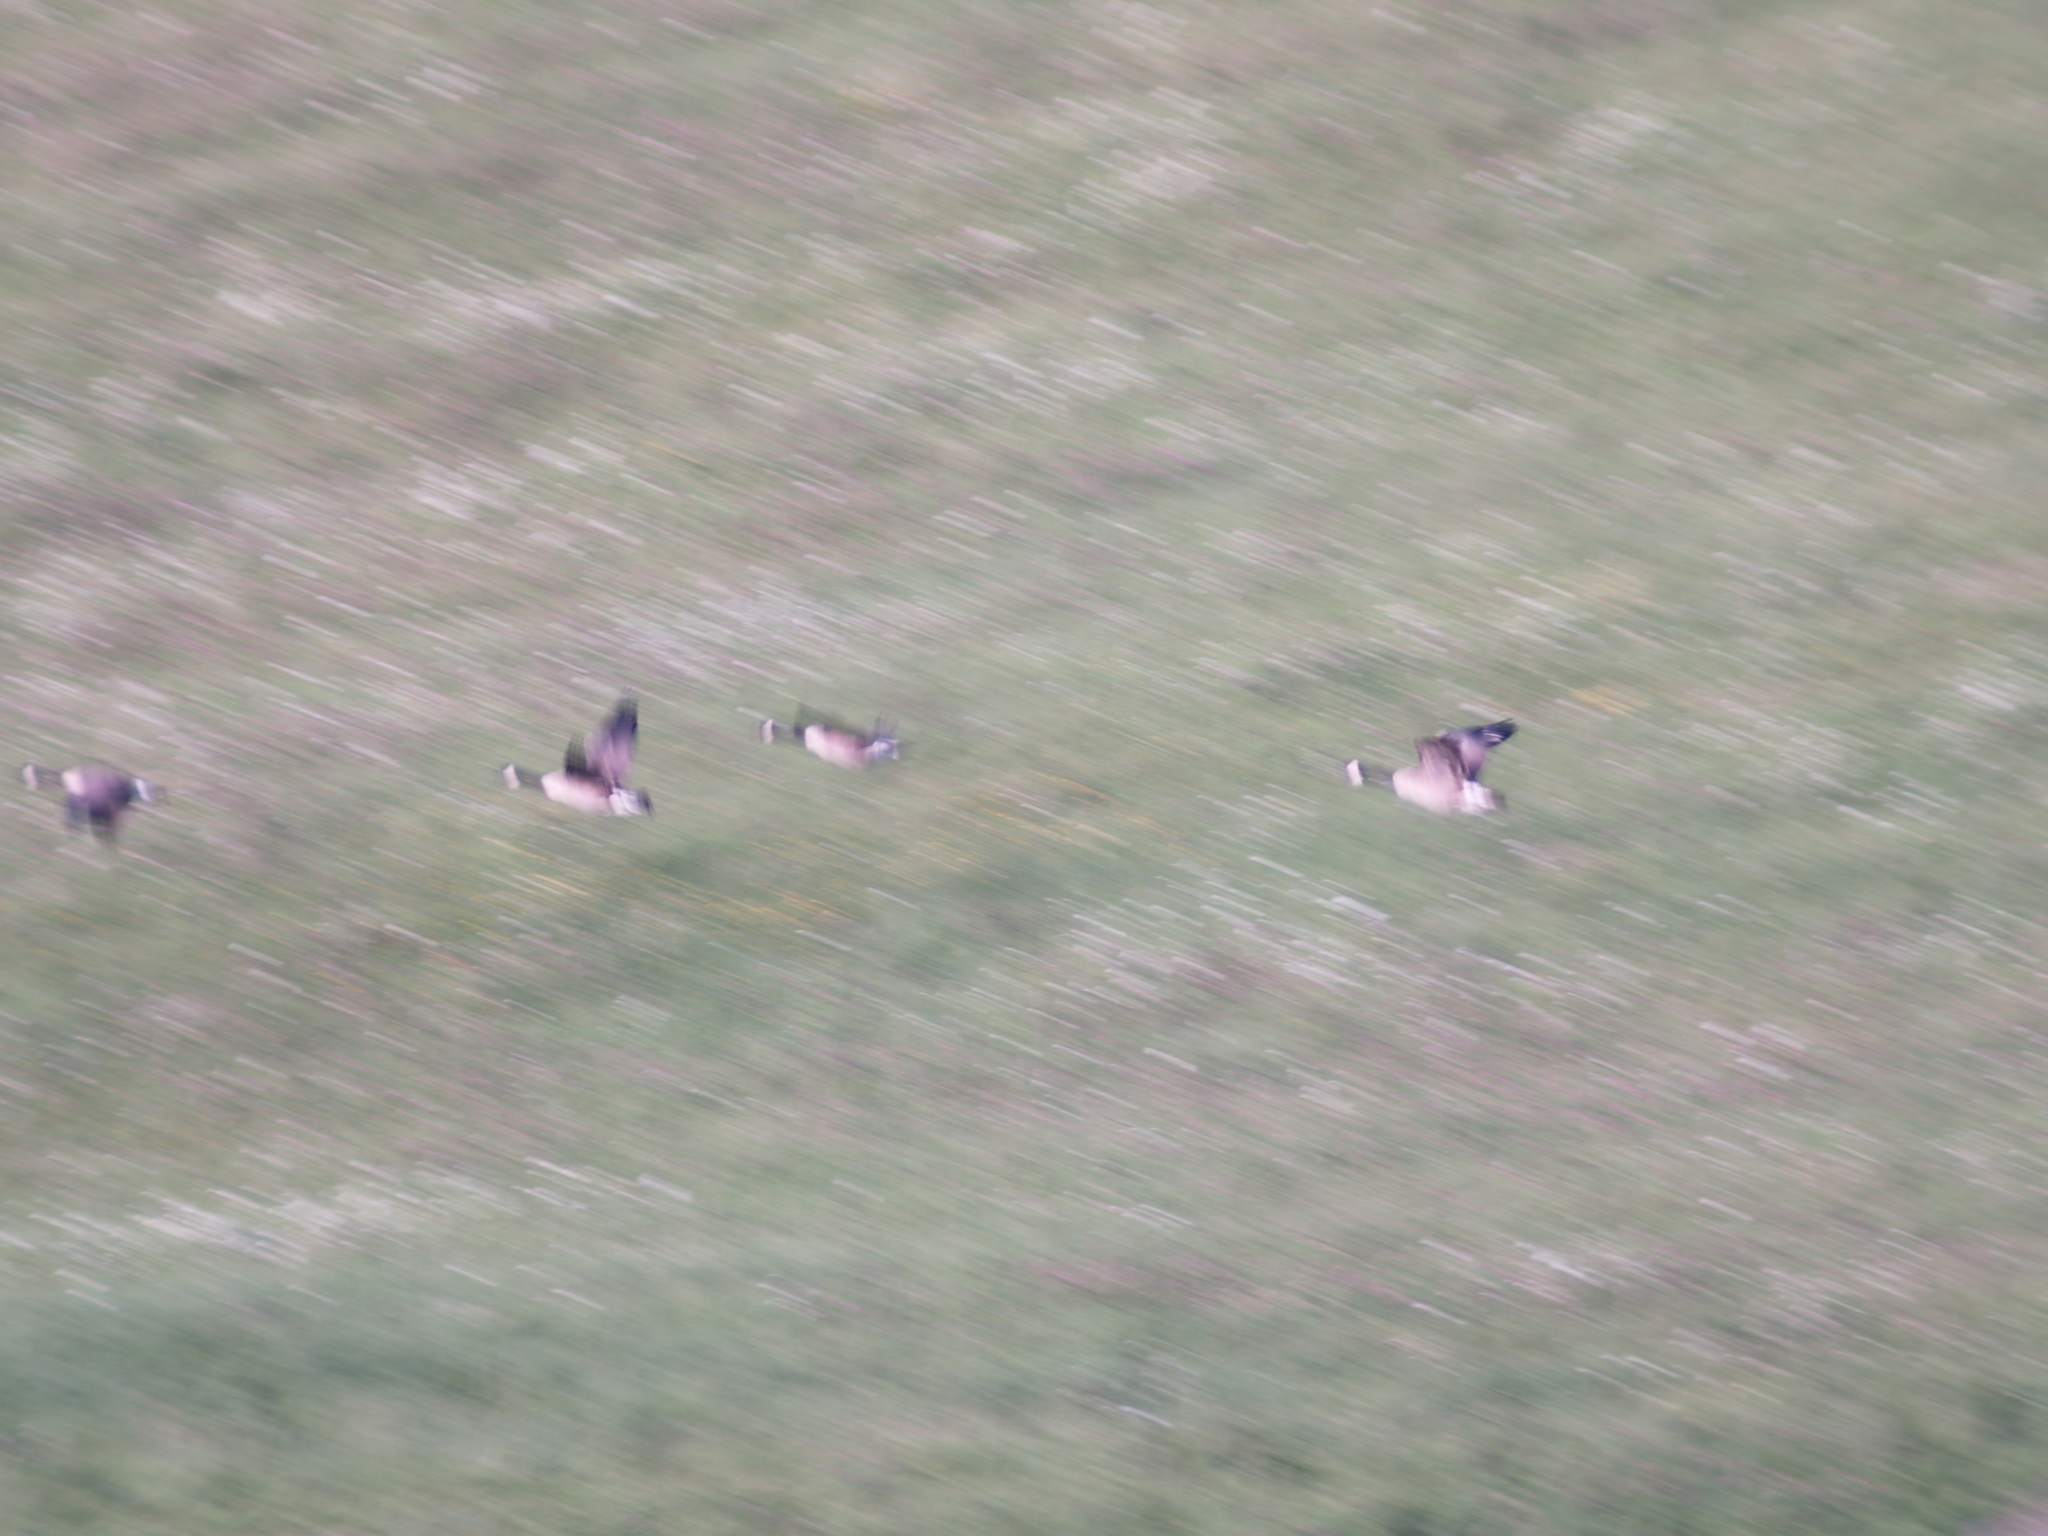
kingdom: Animalia
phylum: Chordata
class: Aves
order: Anseriformes
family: Anatidae
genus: Branta
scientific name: Branta canadensis
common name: Canada goose
